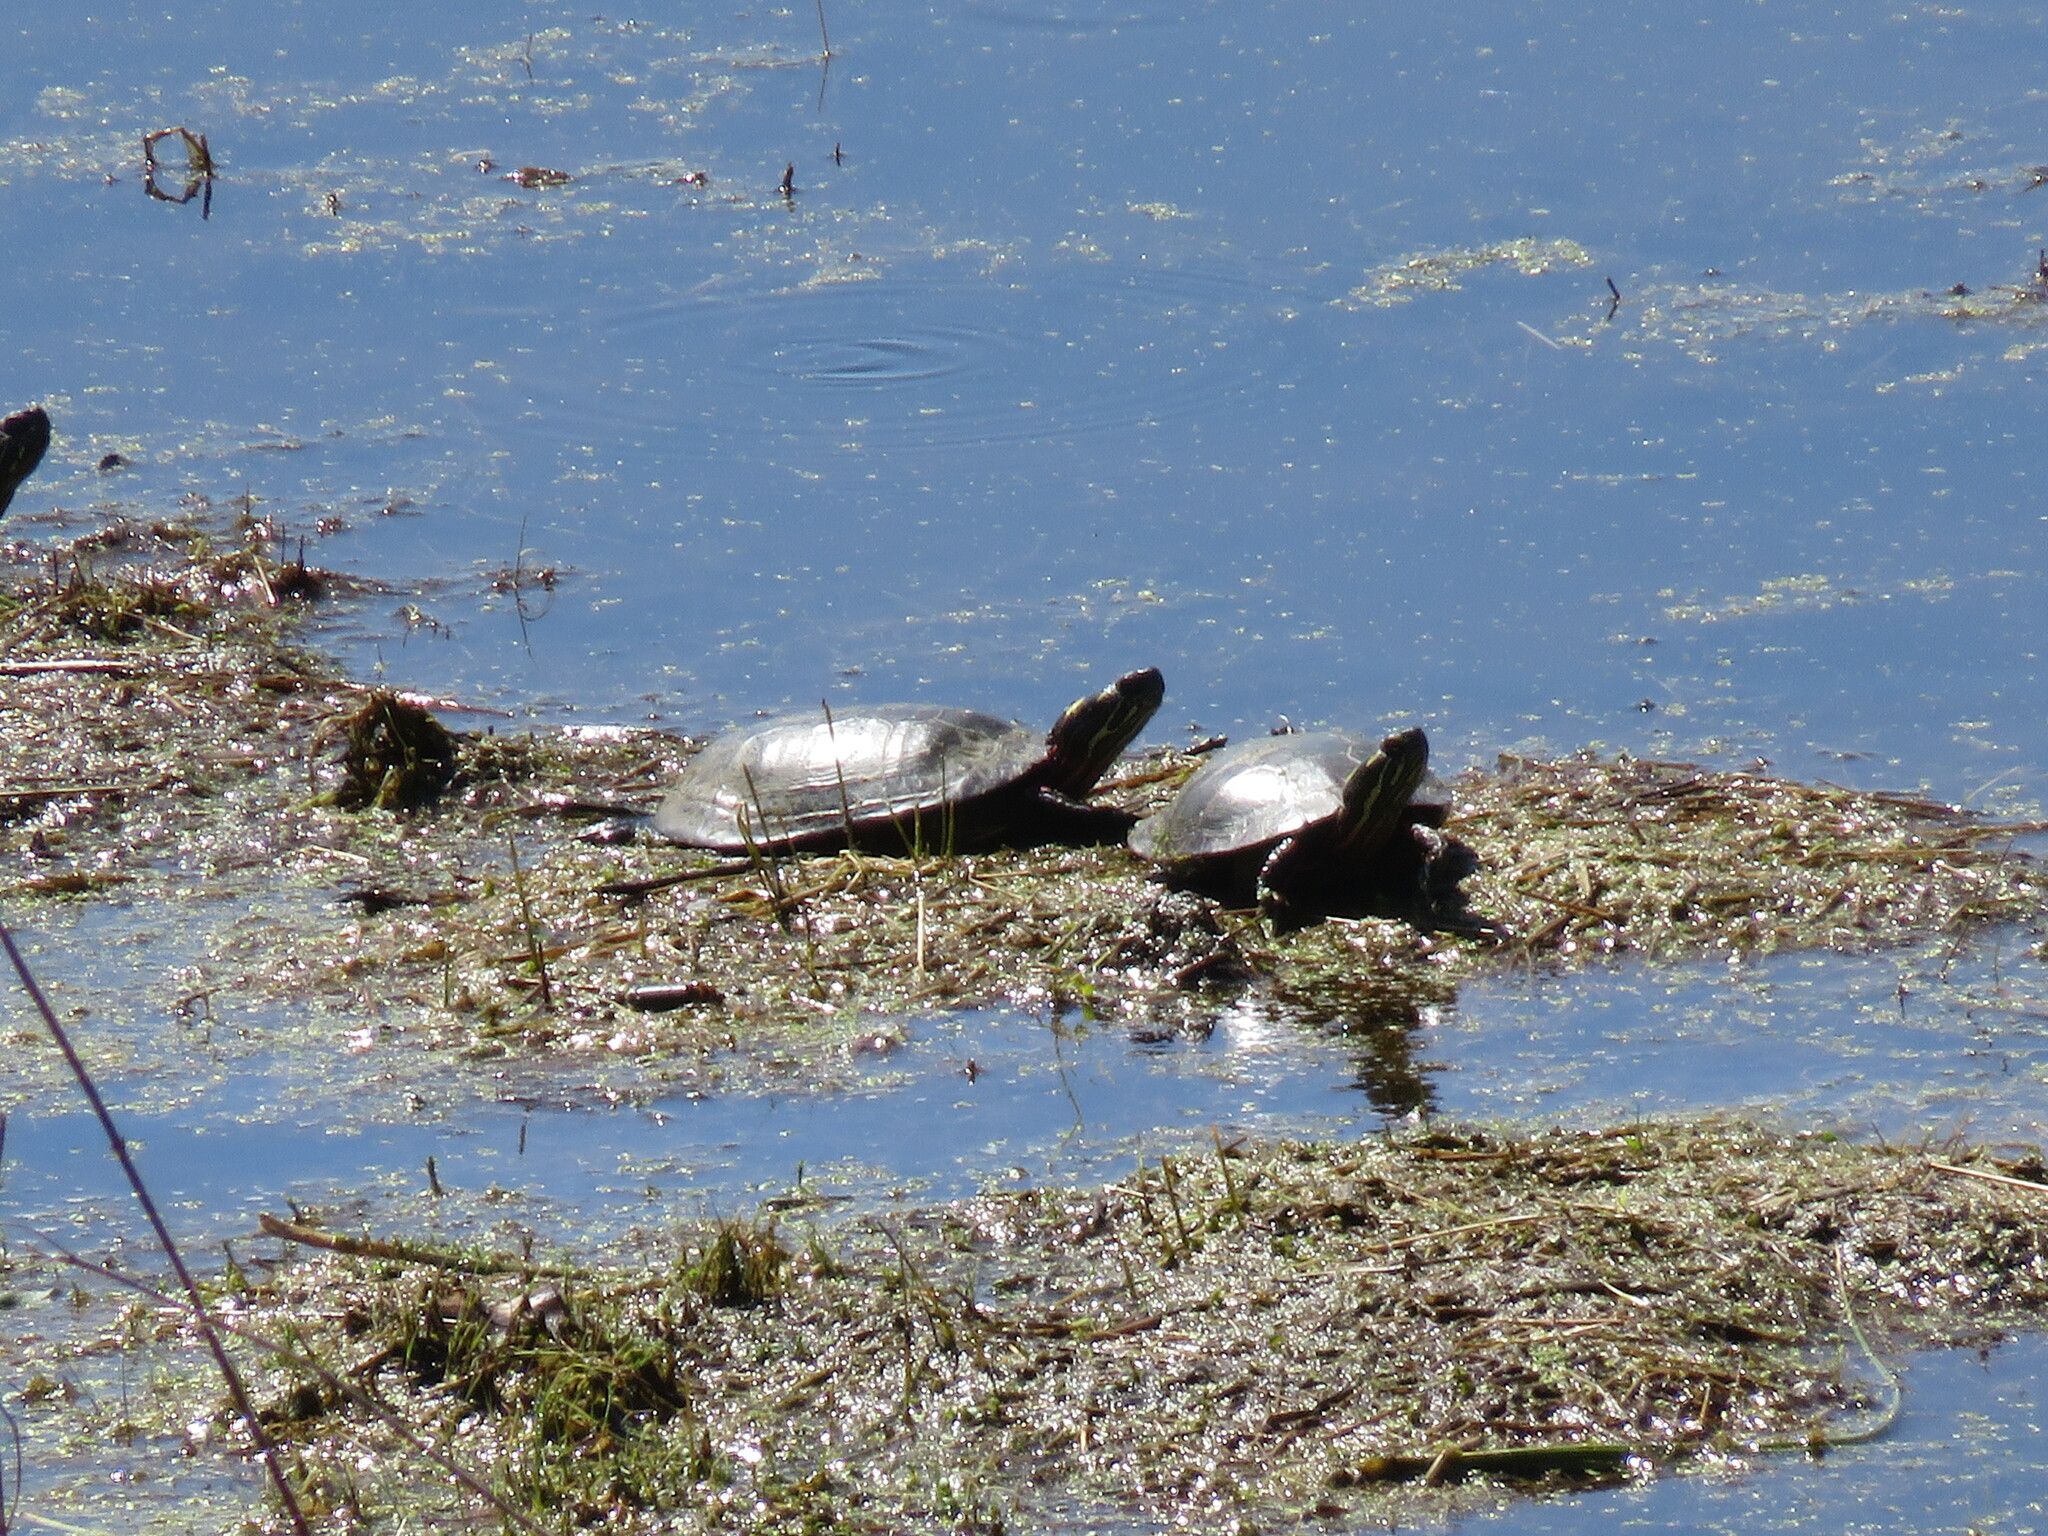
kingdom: Animalia
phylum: Chordata
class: Testudines
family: Emydidae
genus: Chrysemys
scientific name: Chrysemys picta
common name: Painted turtle
